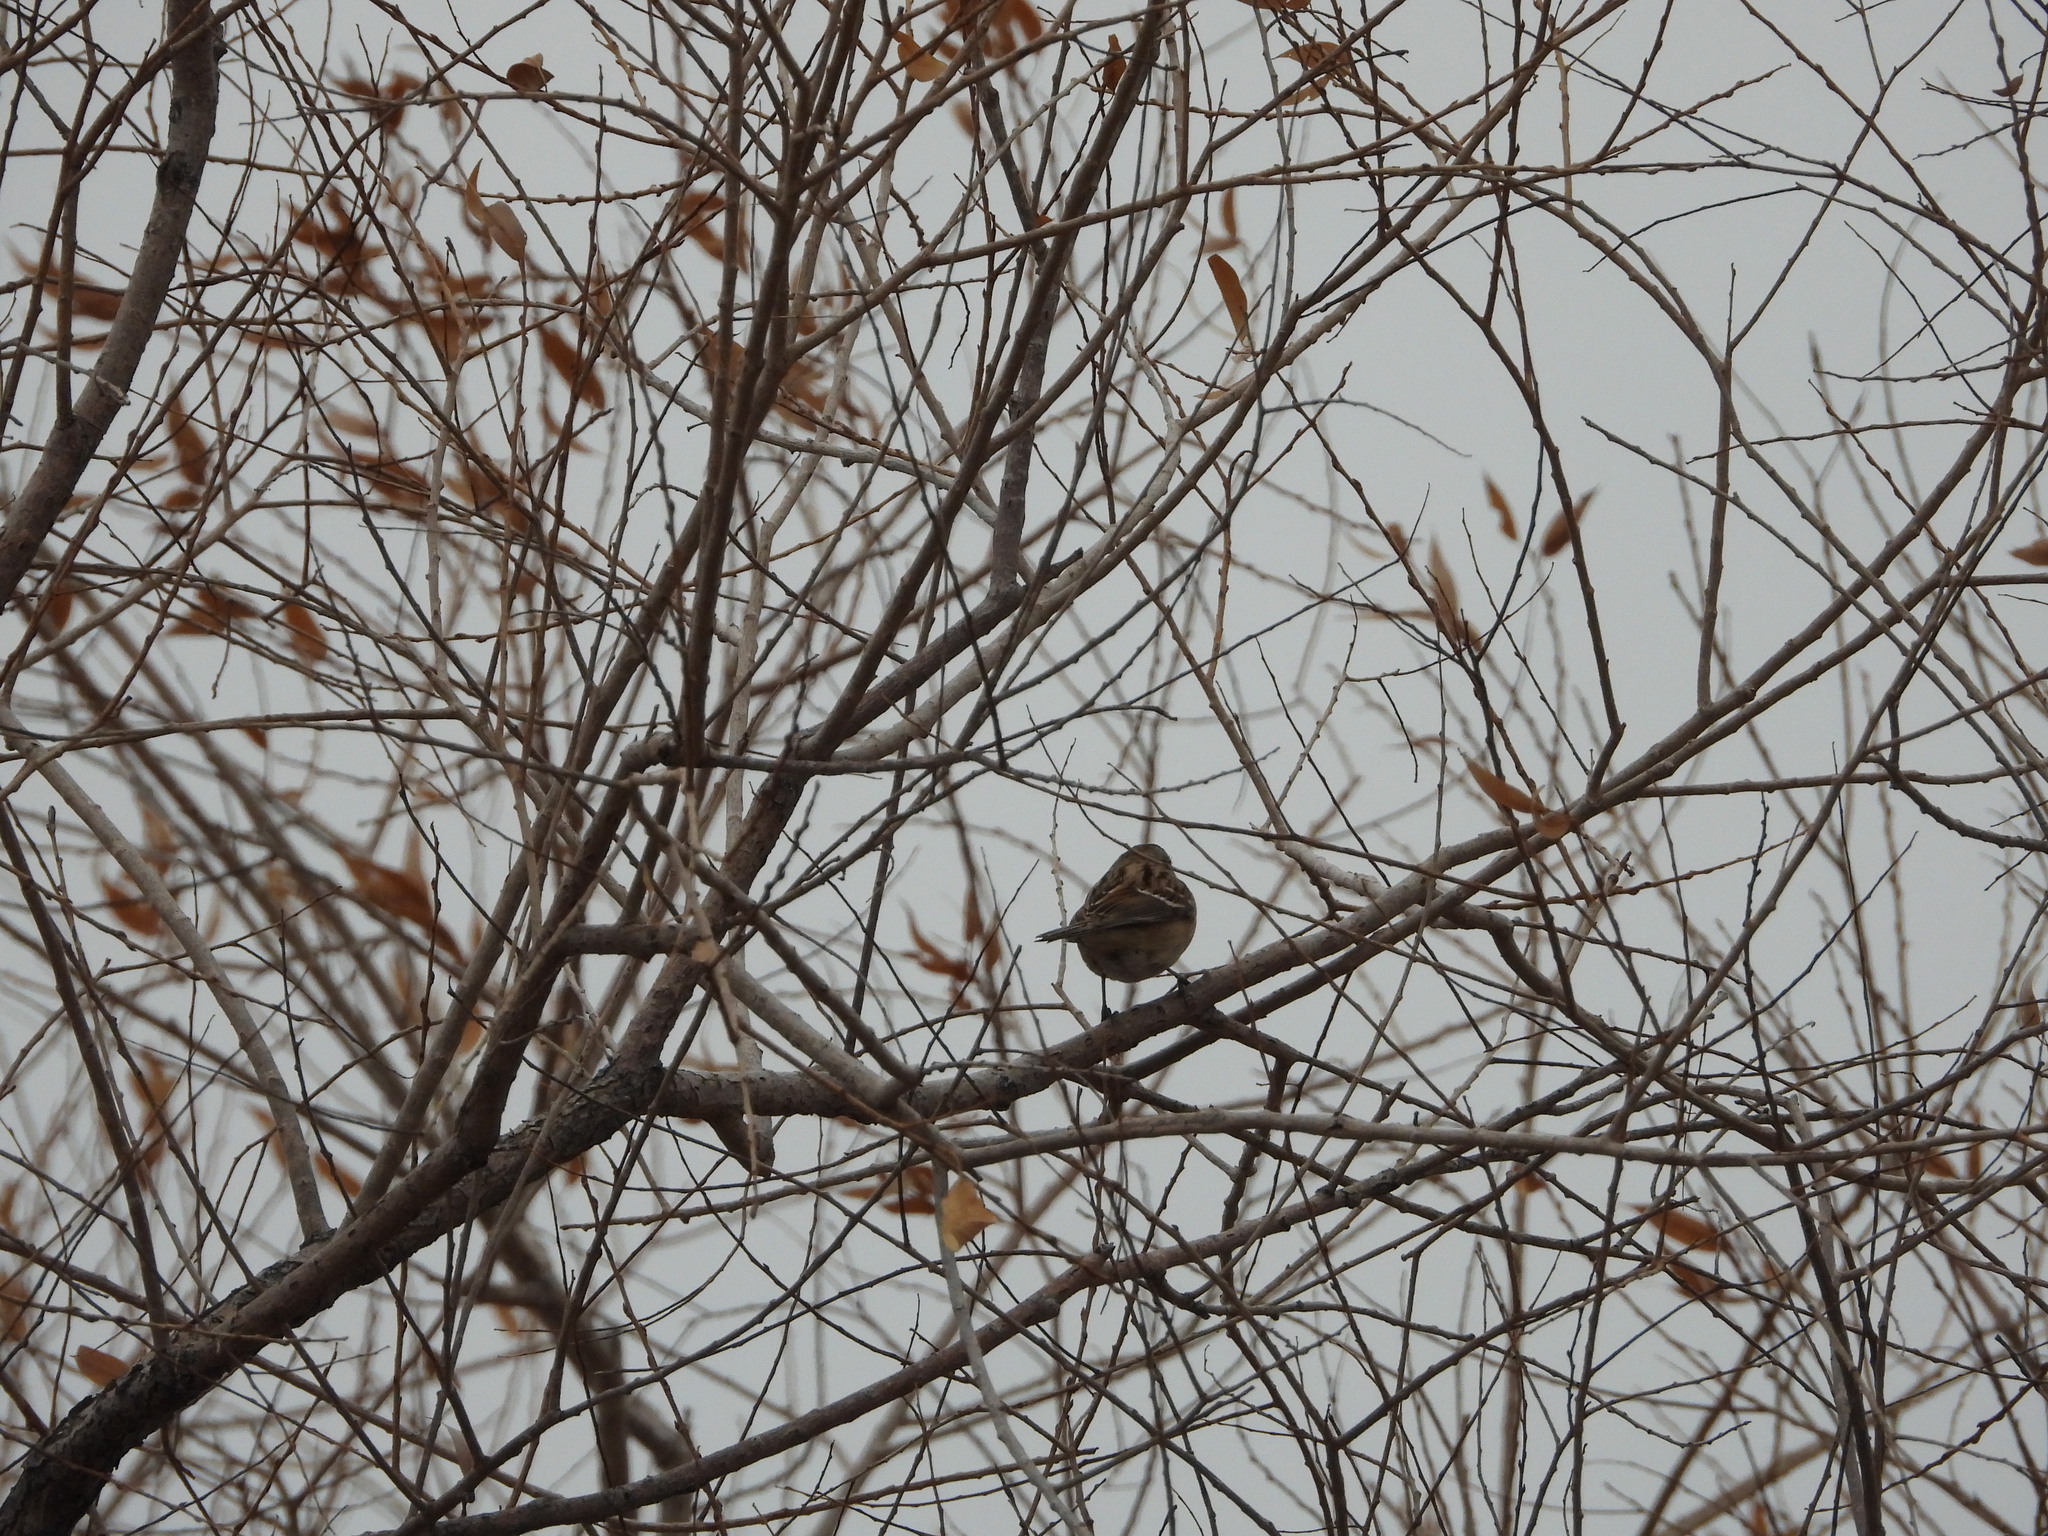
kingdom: Animalia
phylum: Chordata
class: Aves
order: Passeriformes
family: Passerellidae
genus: Spizelloides
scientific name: Spizelloides arborea
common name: American tree sparrow
